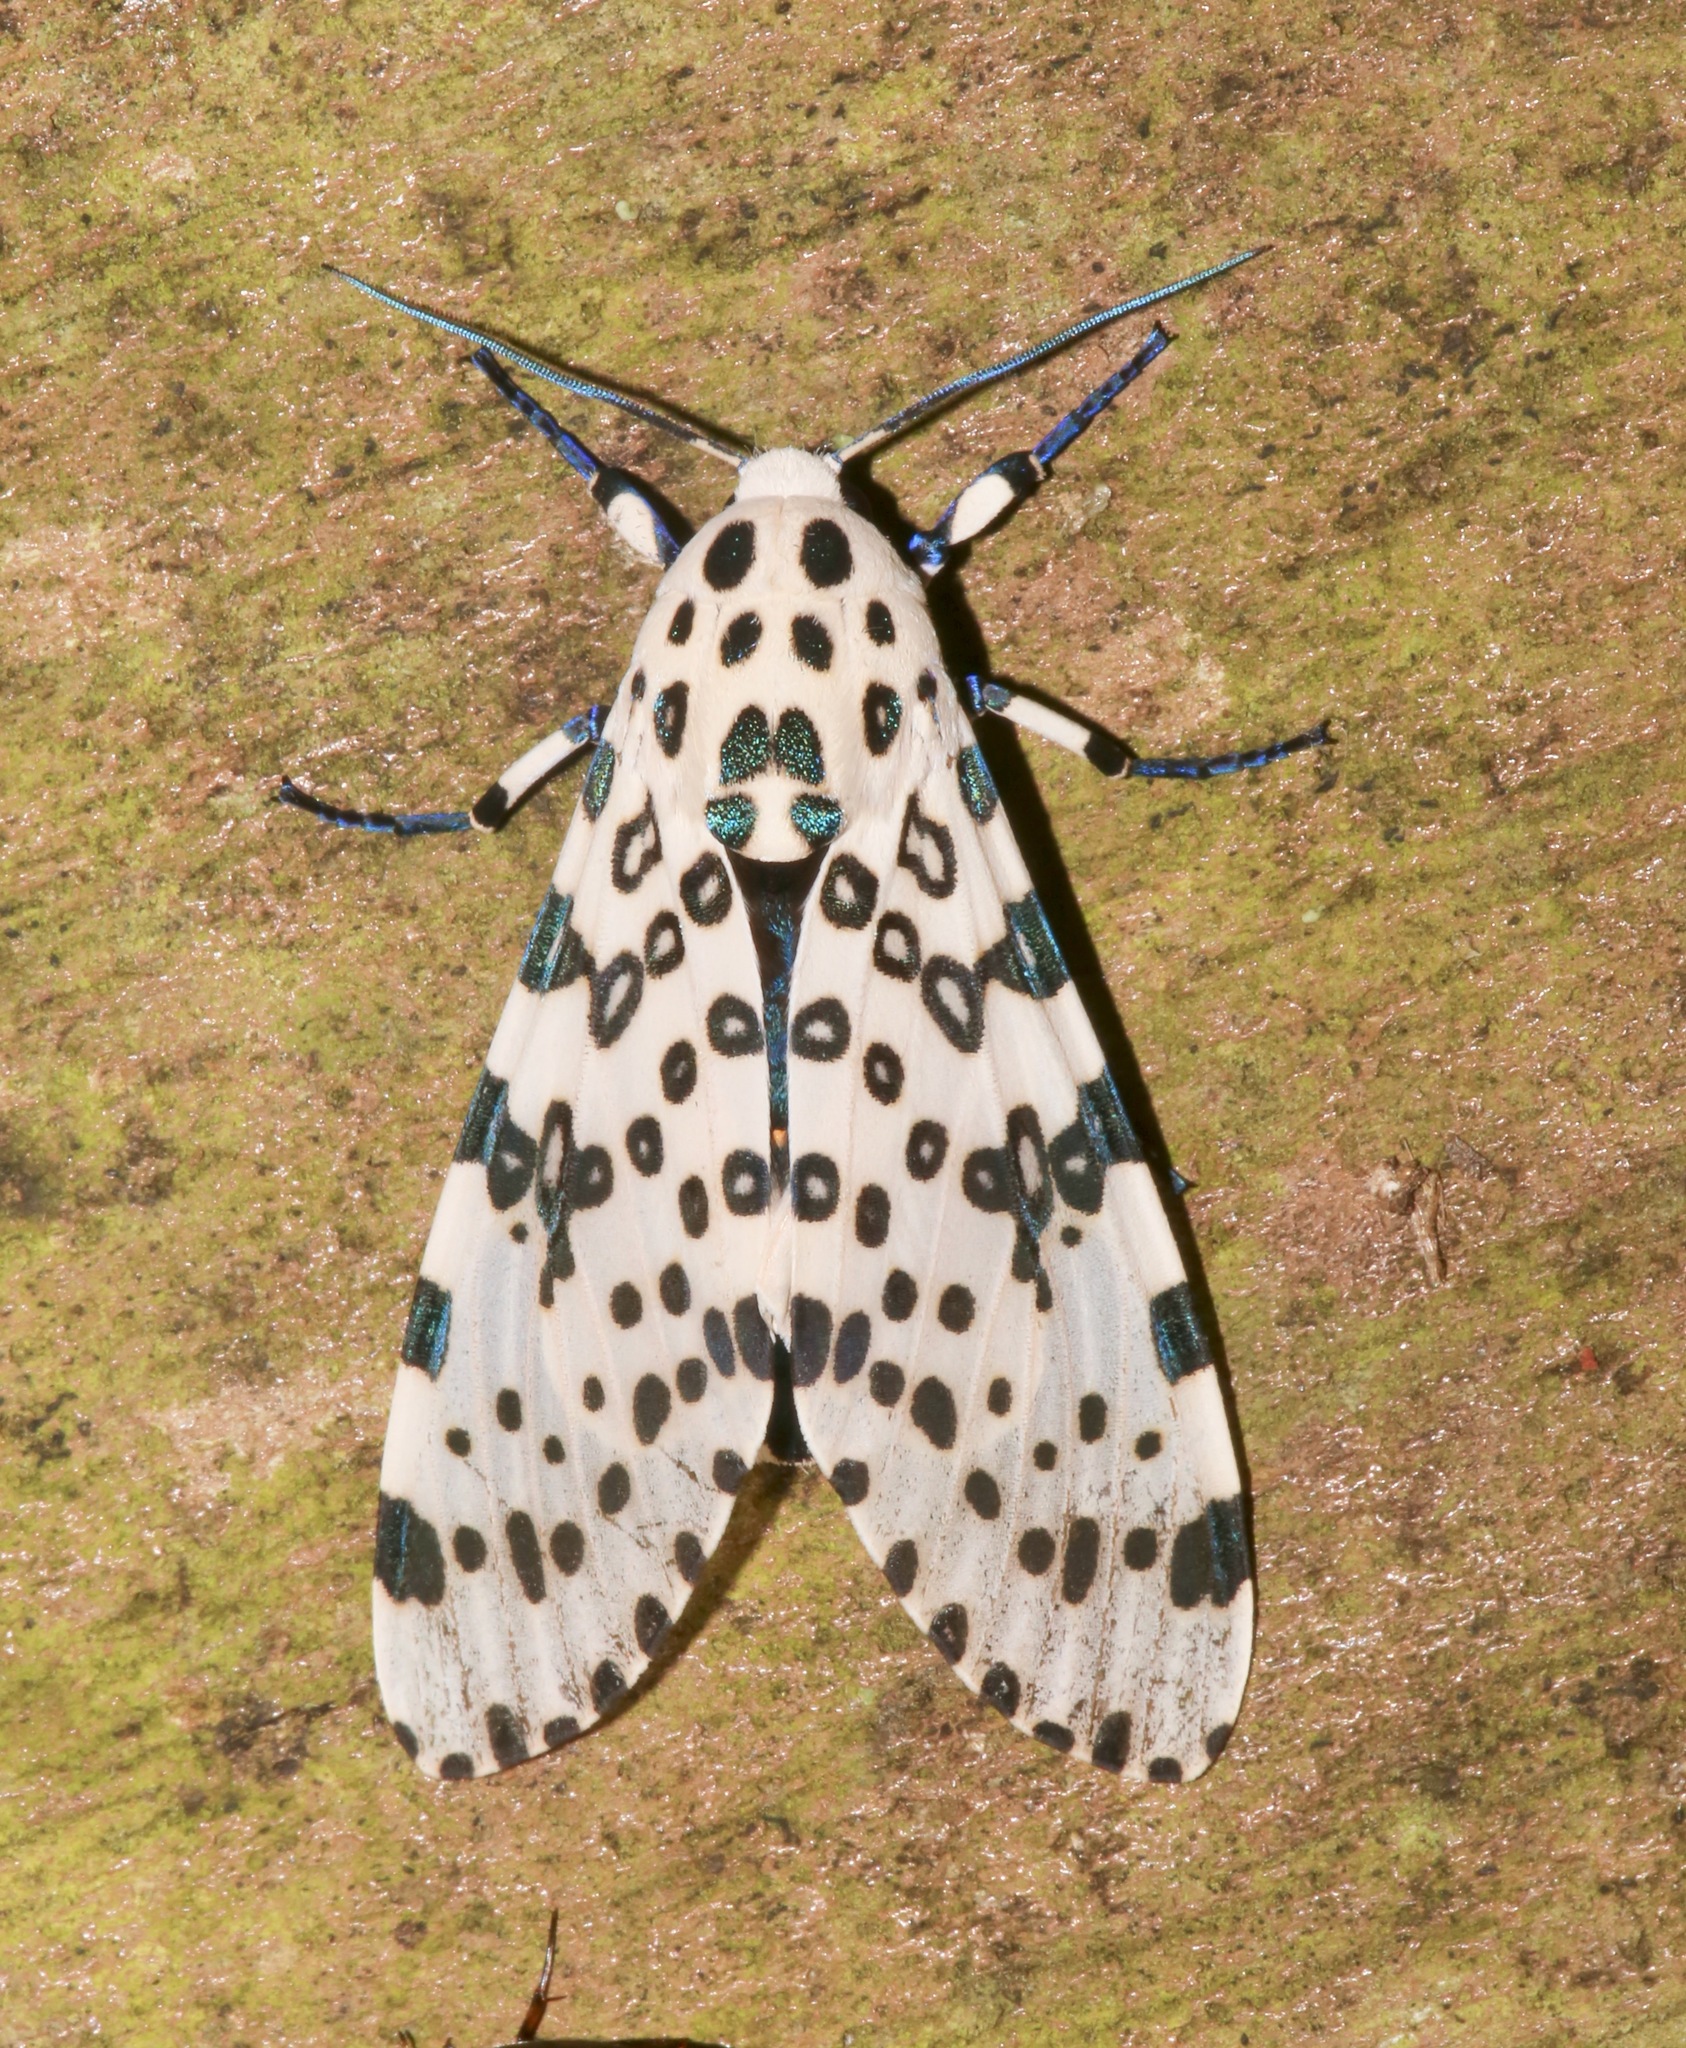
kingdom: Animalia
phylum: Arthropoda
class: Insecta
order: Lepidoptera
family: Erebidae
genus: Hypercompe
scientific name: Hypercompe scribonia
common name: Giant leopard moth
